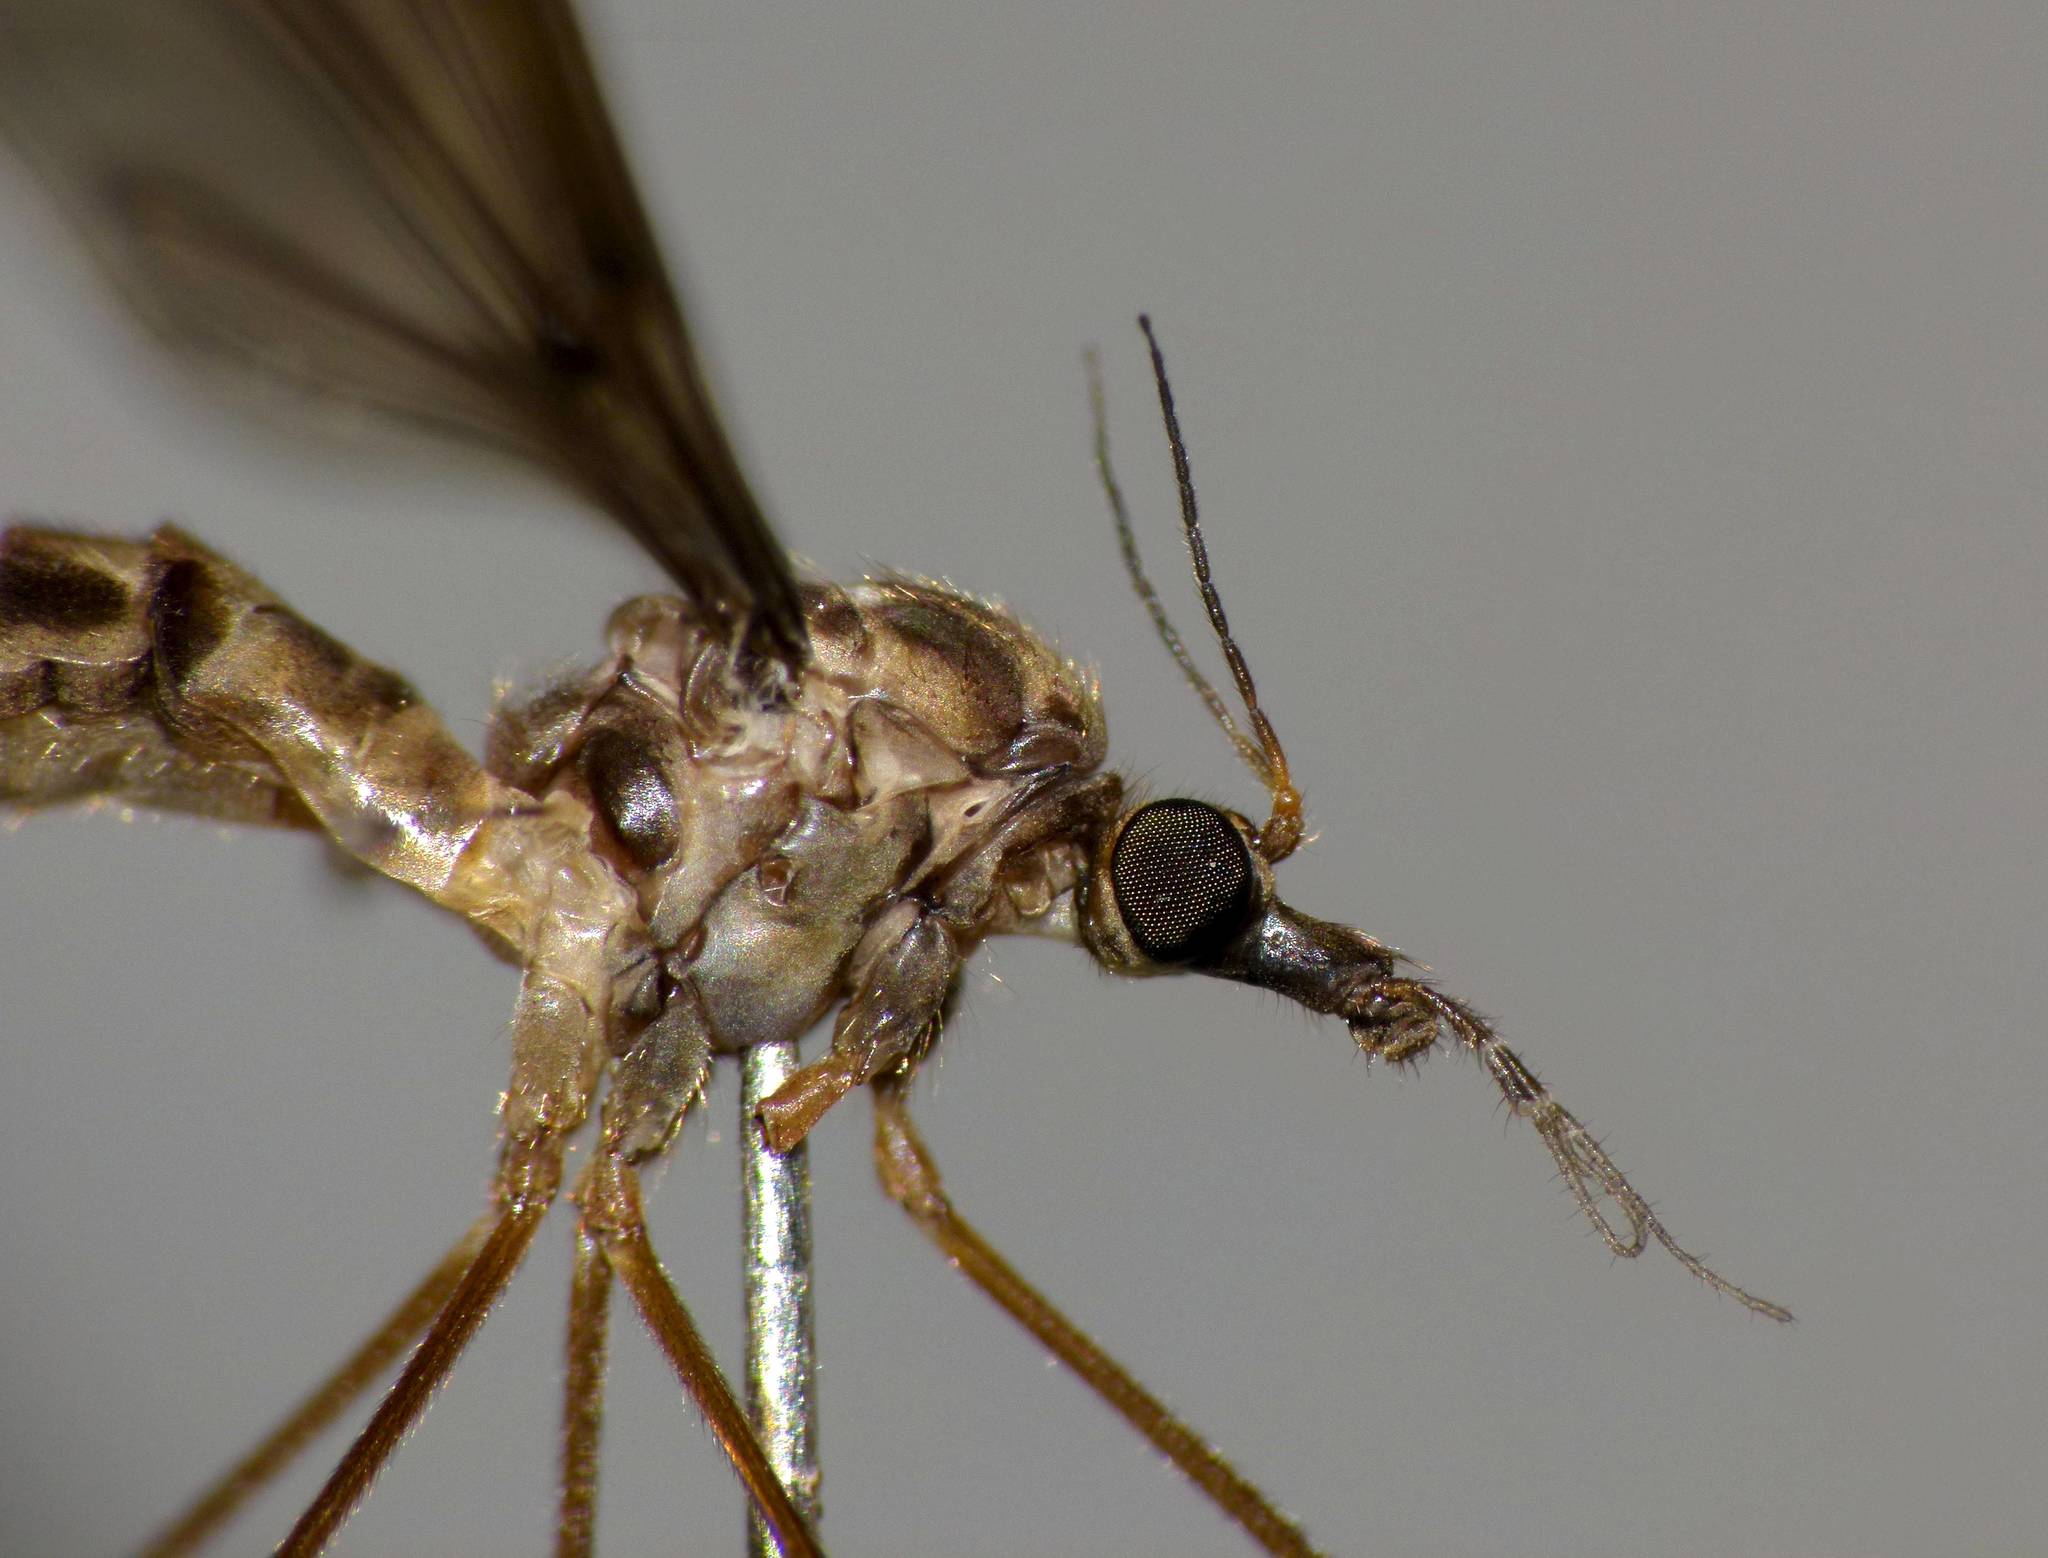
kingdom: Animalia
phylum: Arthropoda
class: Insecta
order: Diptera
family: Tipulidae
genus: Leptotarsus
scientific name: Leptotarsus cubitalis
